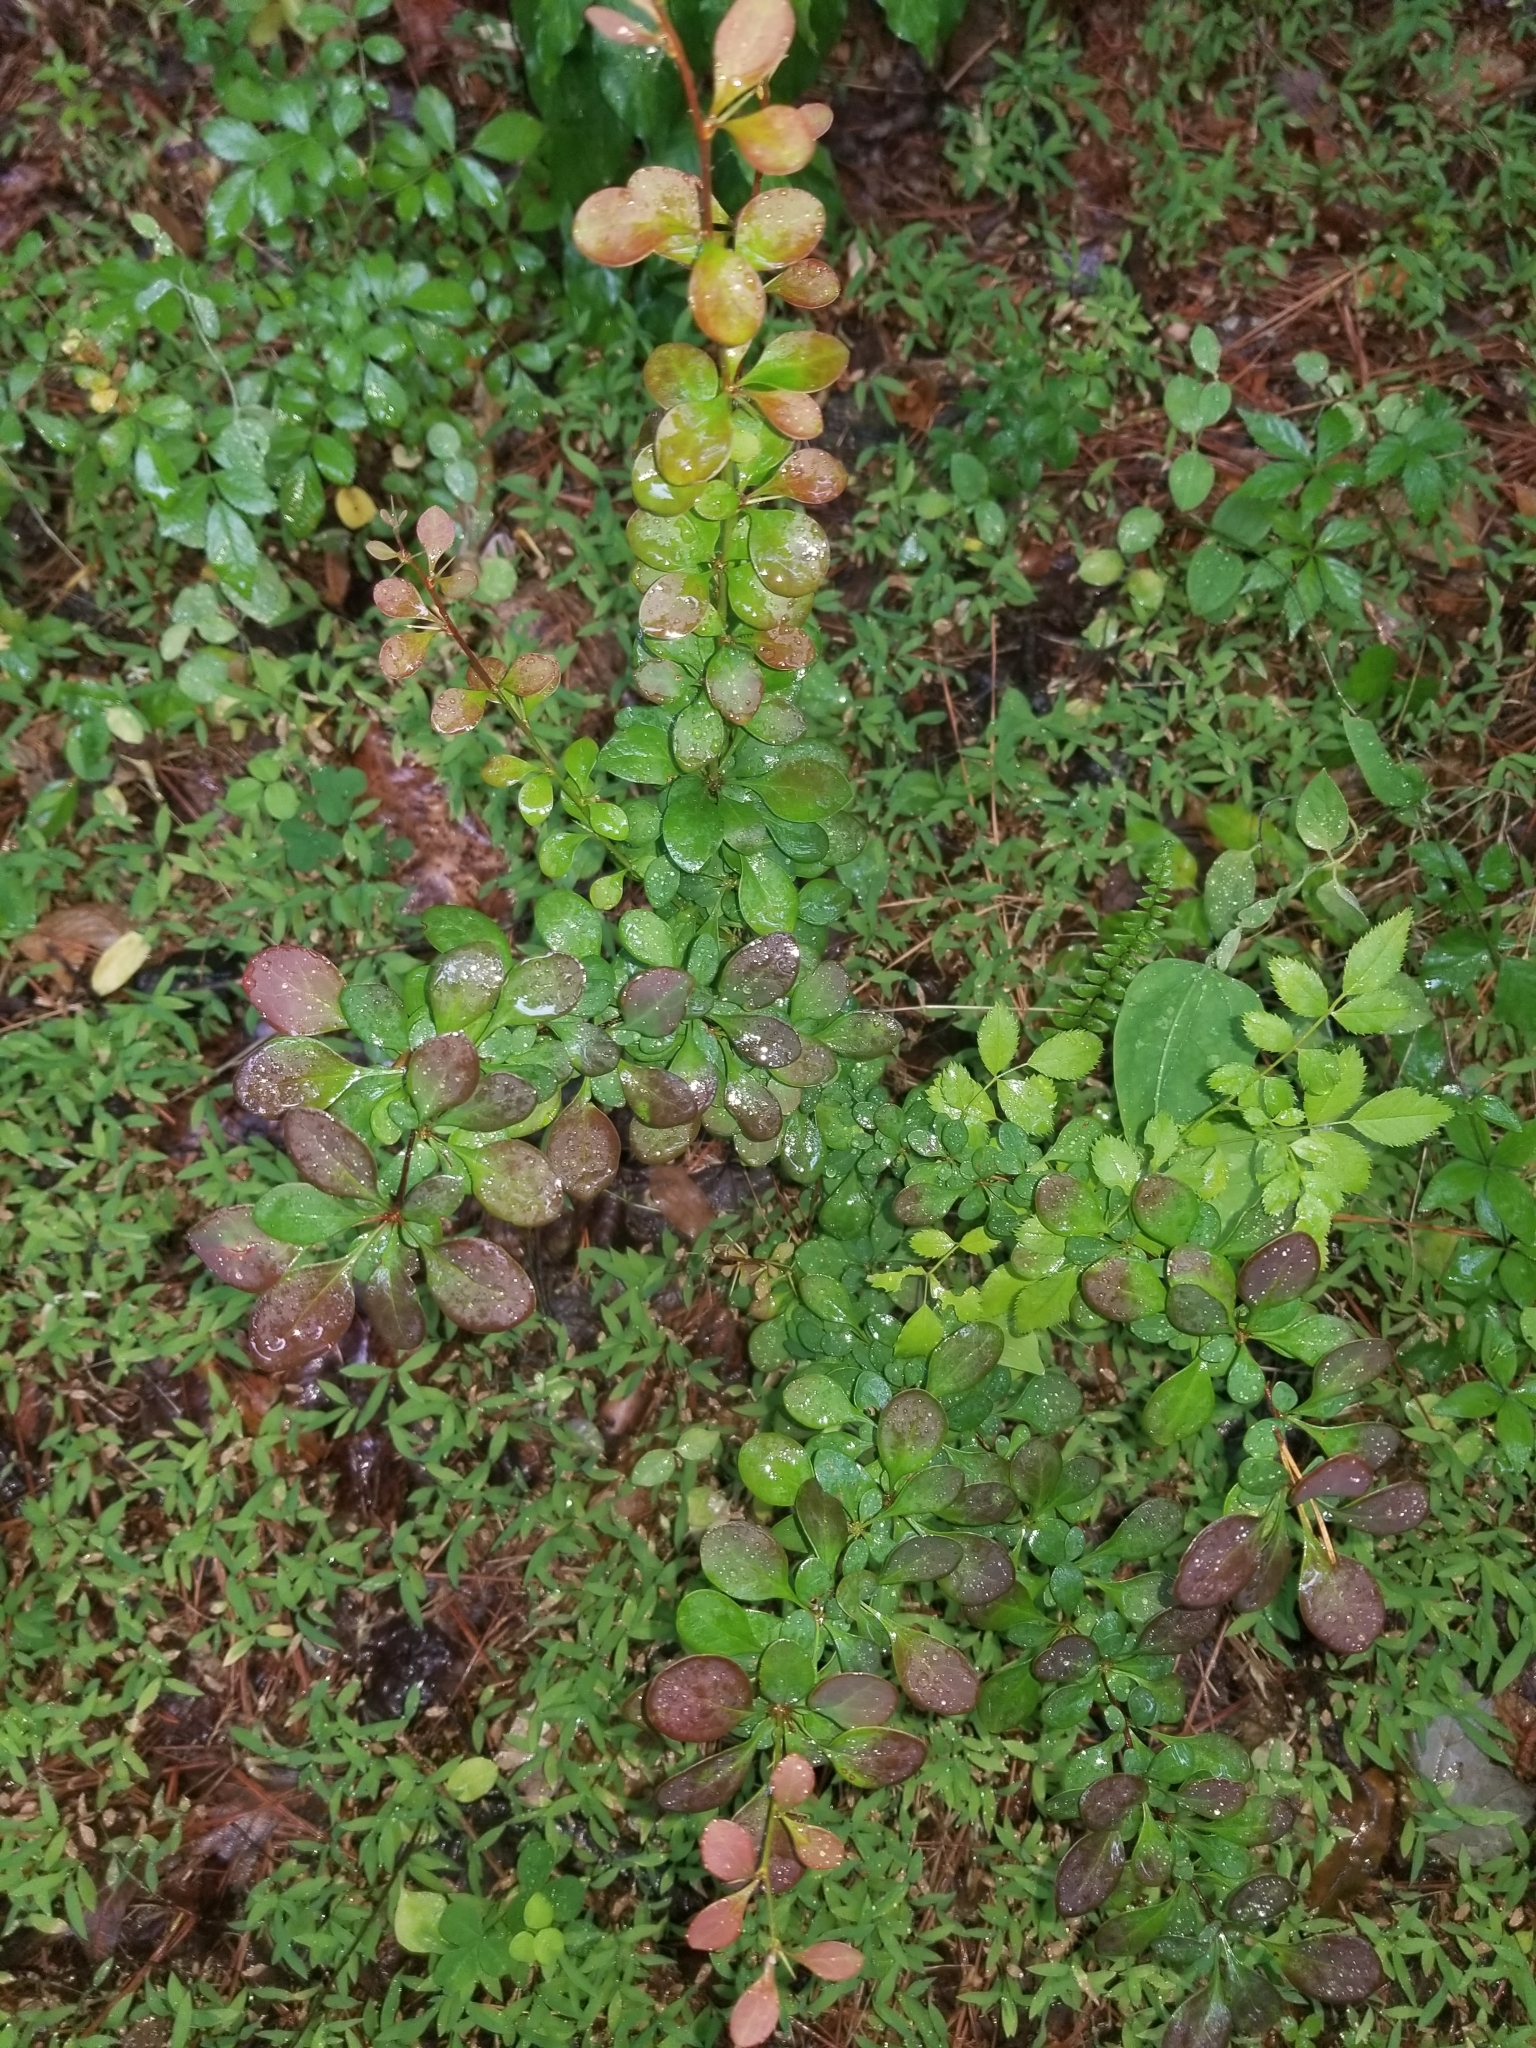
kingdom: Plantae
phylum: Tracheophyta
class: Magnoliopsida
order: Ranunculales
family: Berberidaceae
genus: Berberis
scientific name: Berberis thunbergii
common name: Japanese barberry
